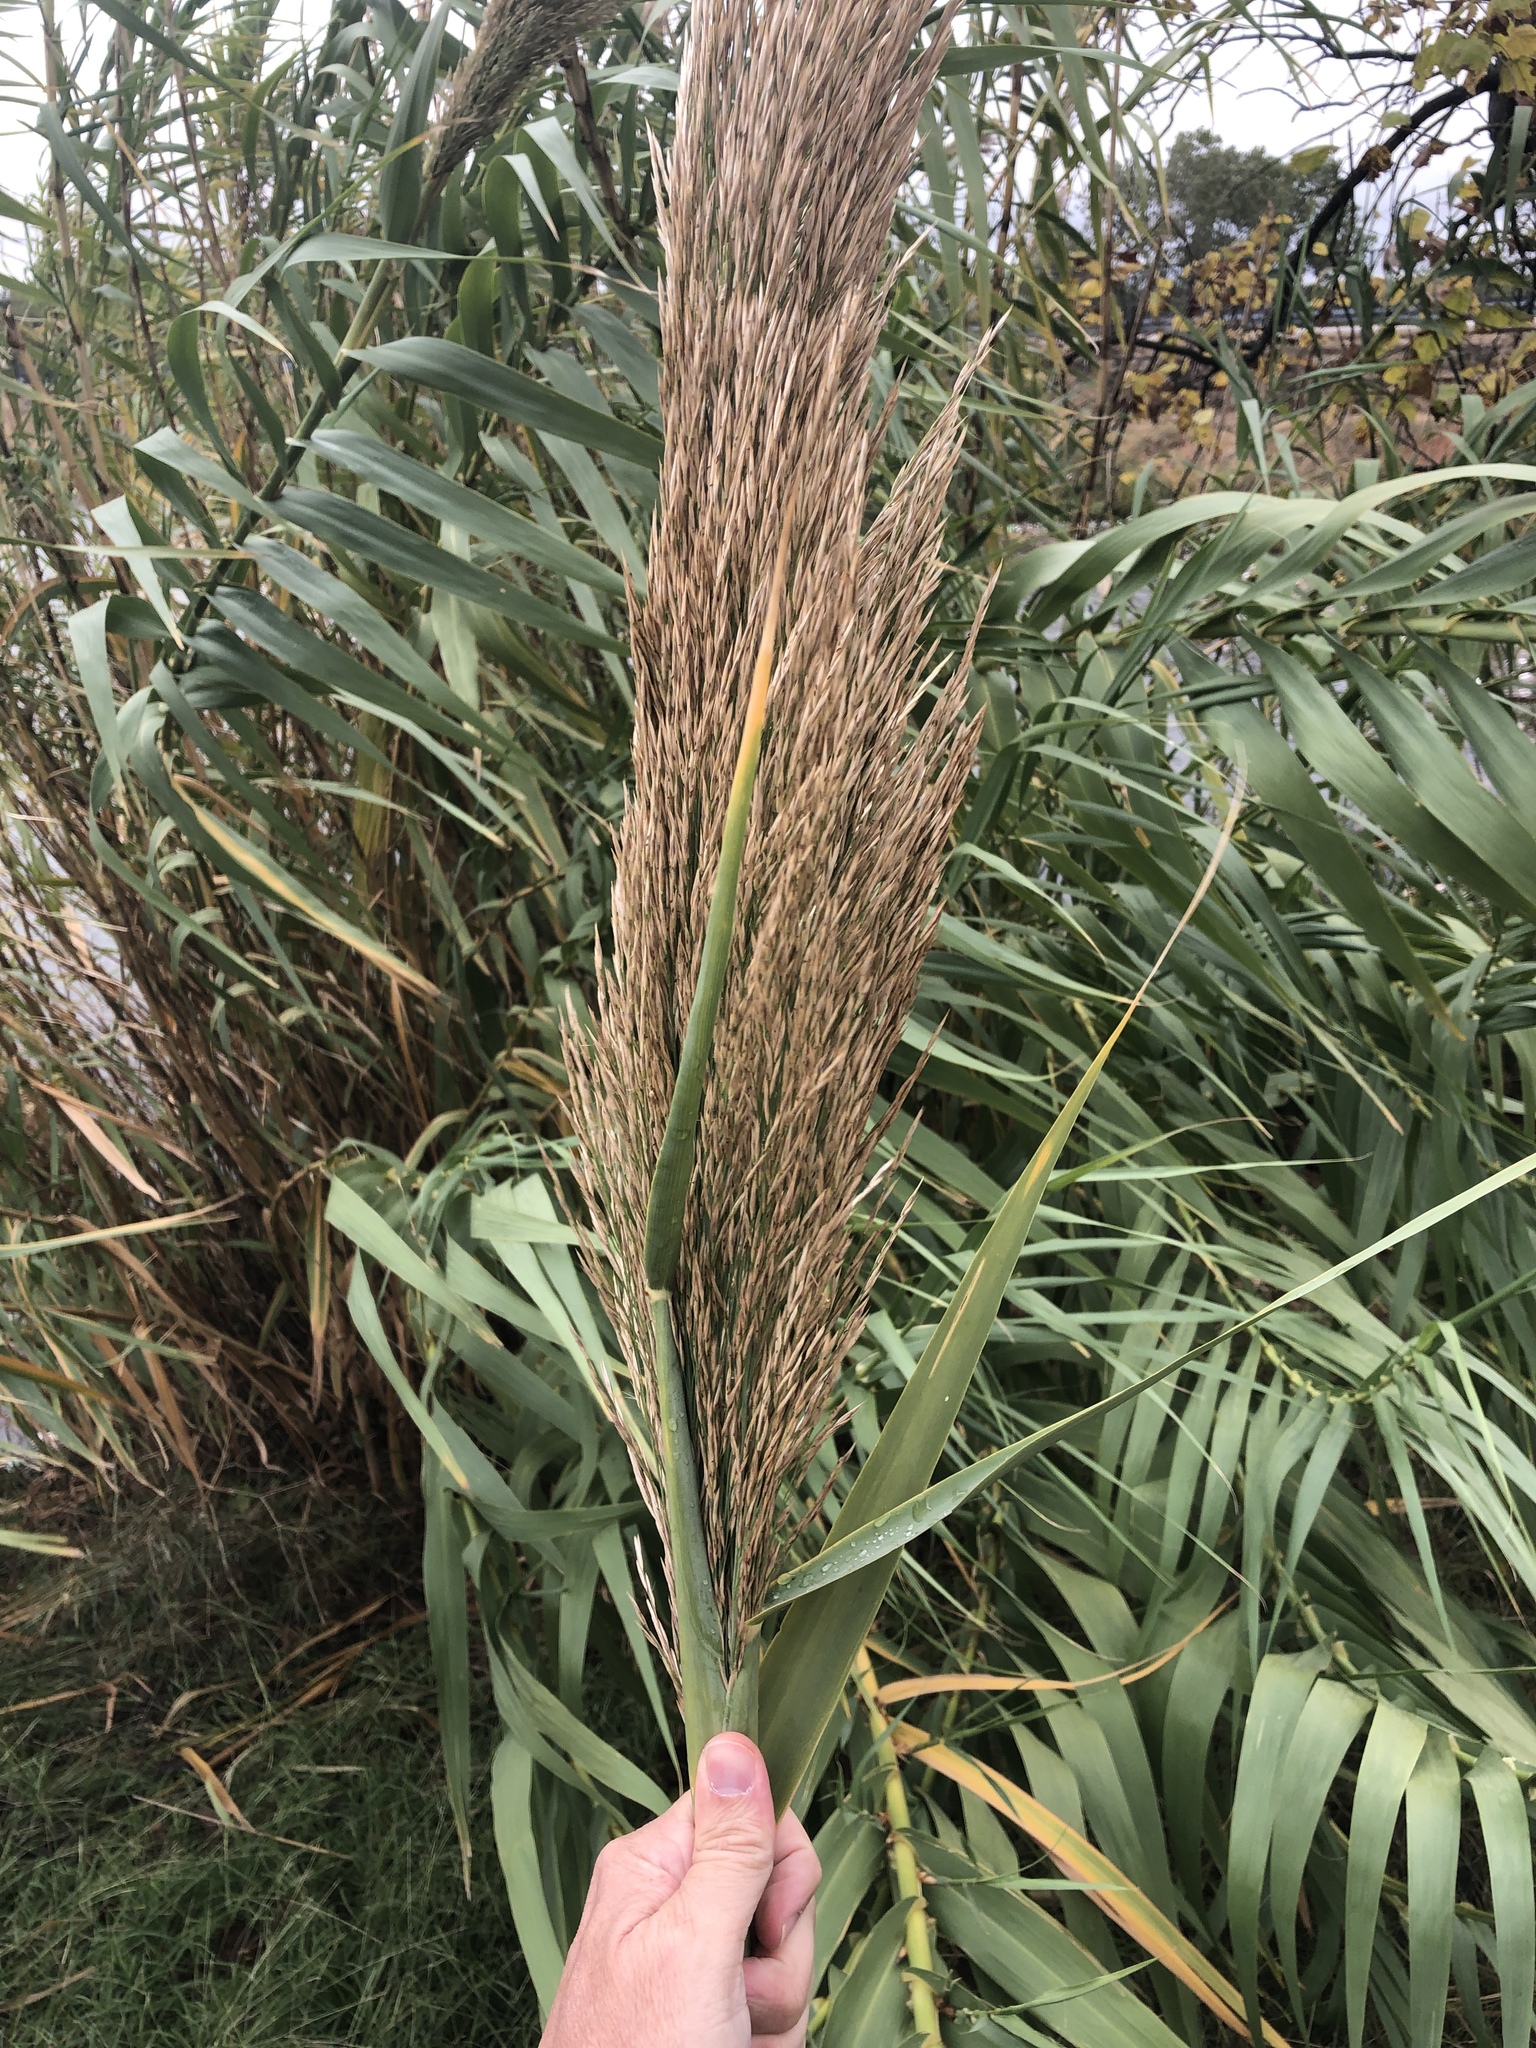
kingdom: Plantae
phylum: Tracheophyta
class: Liliopsida
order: Poales
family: Poaceae
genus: Arundo
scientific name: Arundo donax
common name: Giant reed
